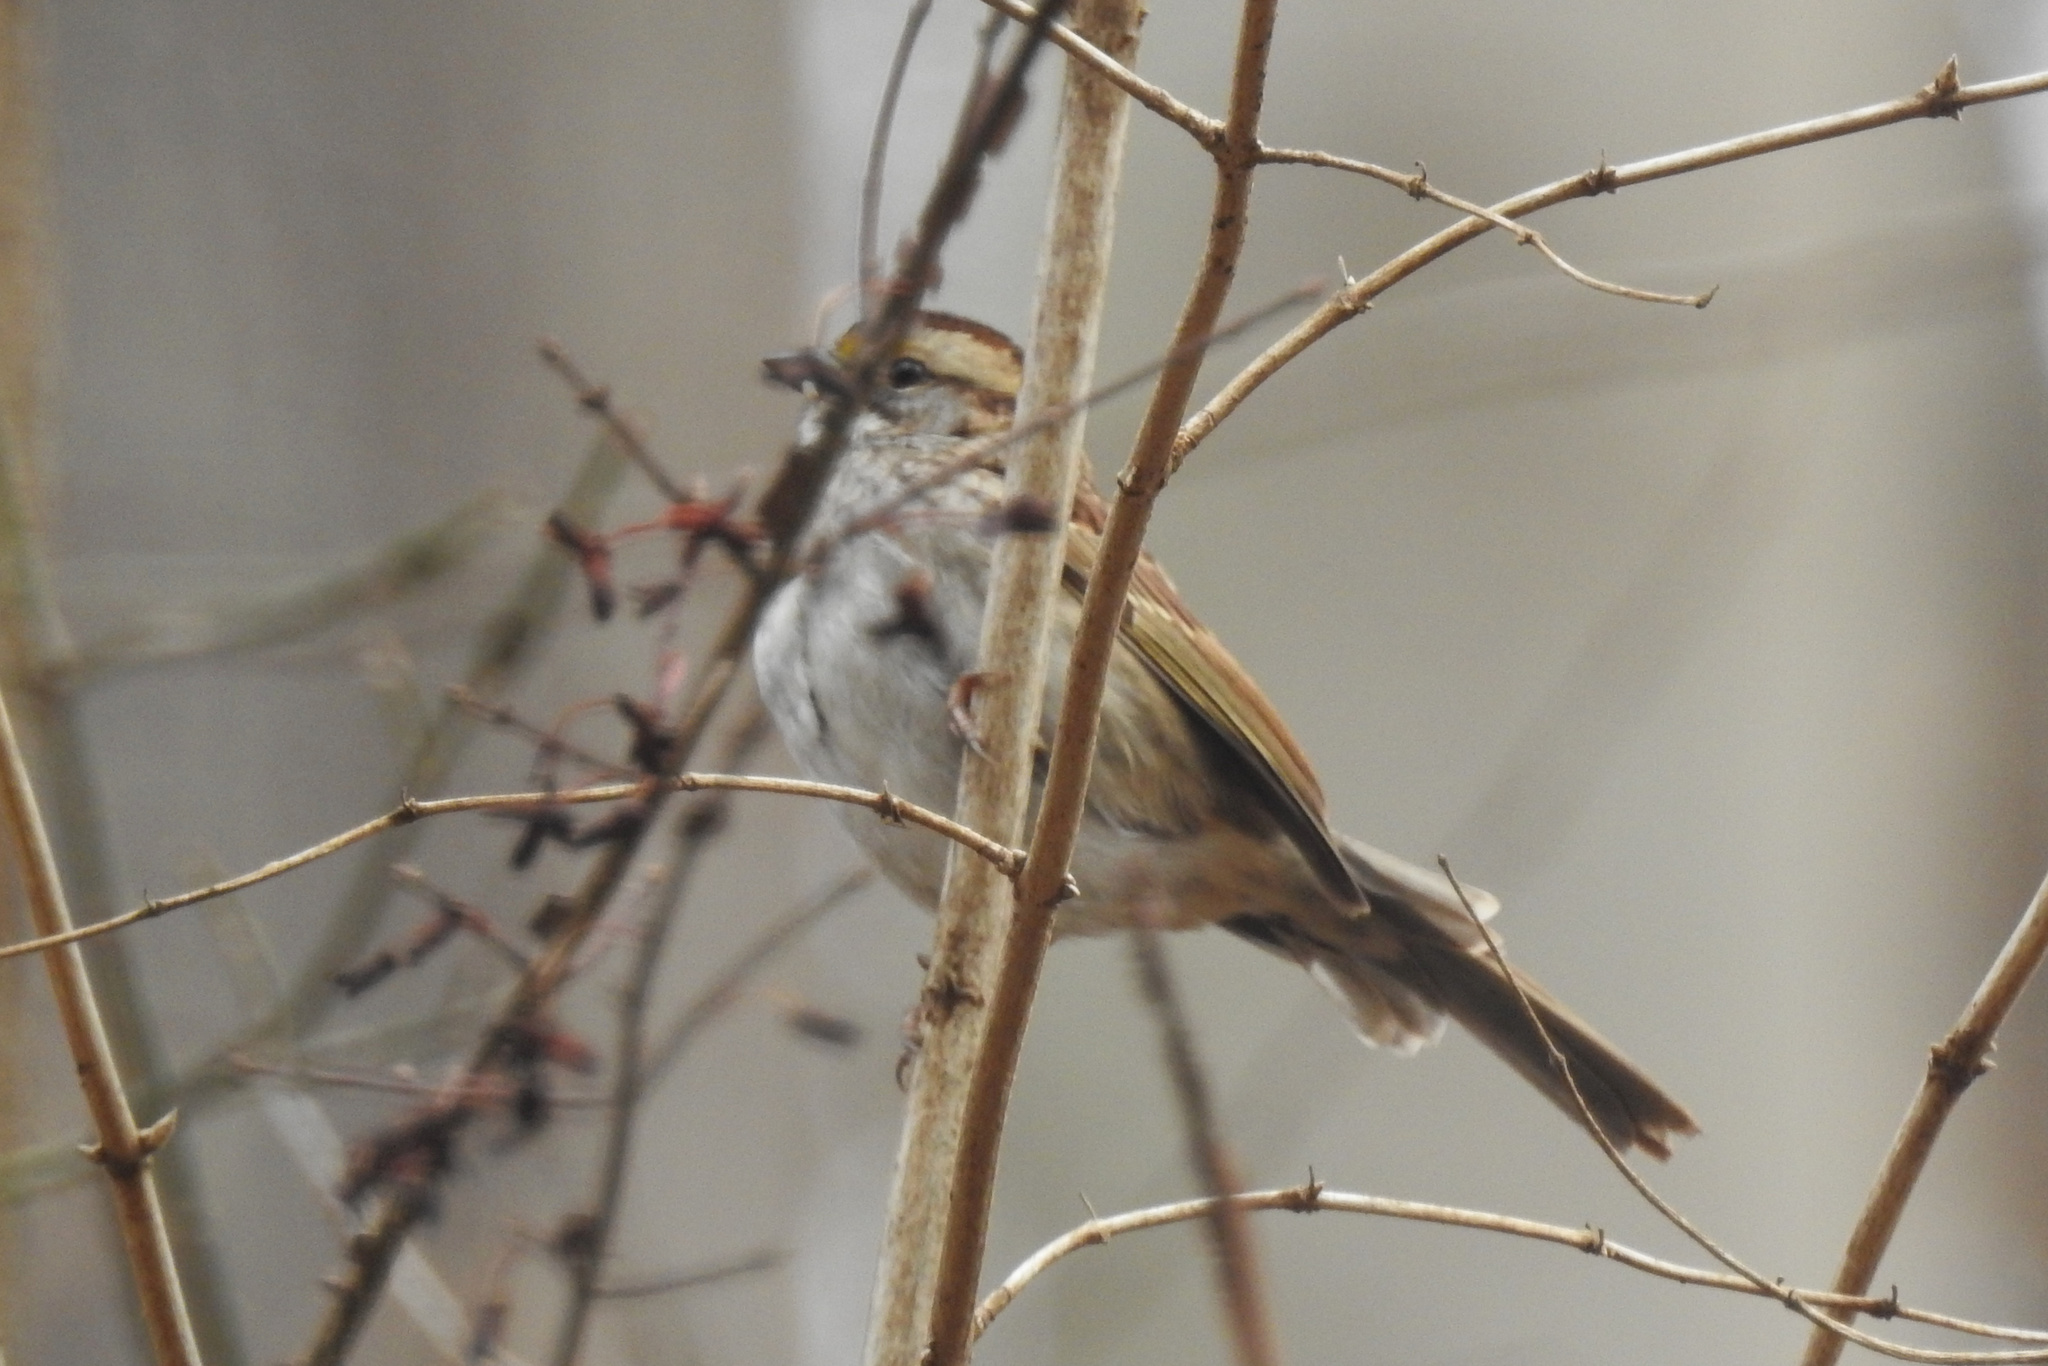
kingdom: Animalia
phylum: Chordata
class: Aves
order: Passeriformes
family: Passerellidae
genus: Zonotrichia
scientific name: Zonotrichia albicollis
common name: White-throated sparrow
